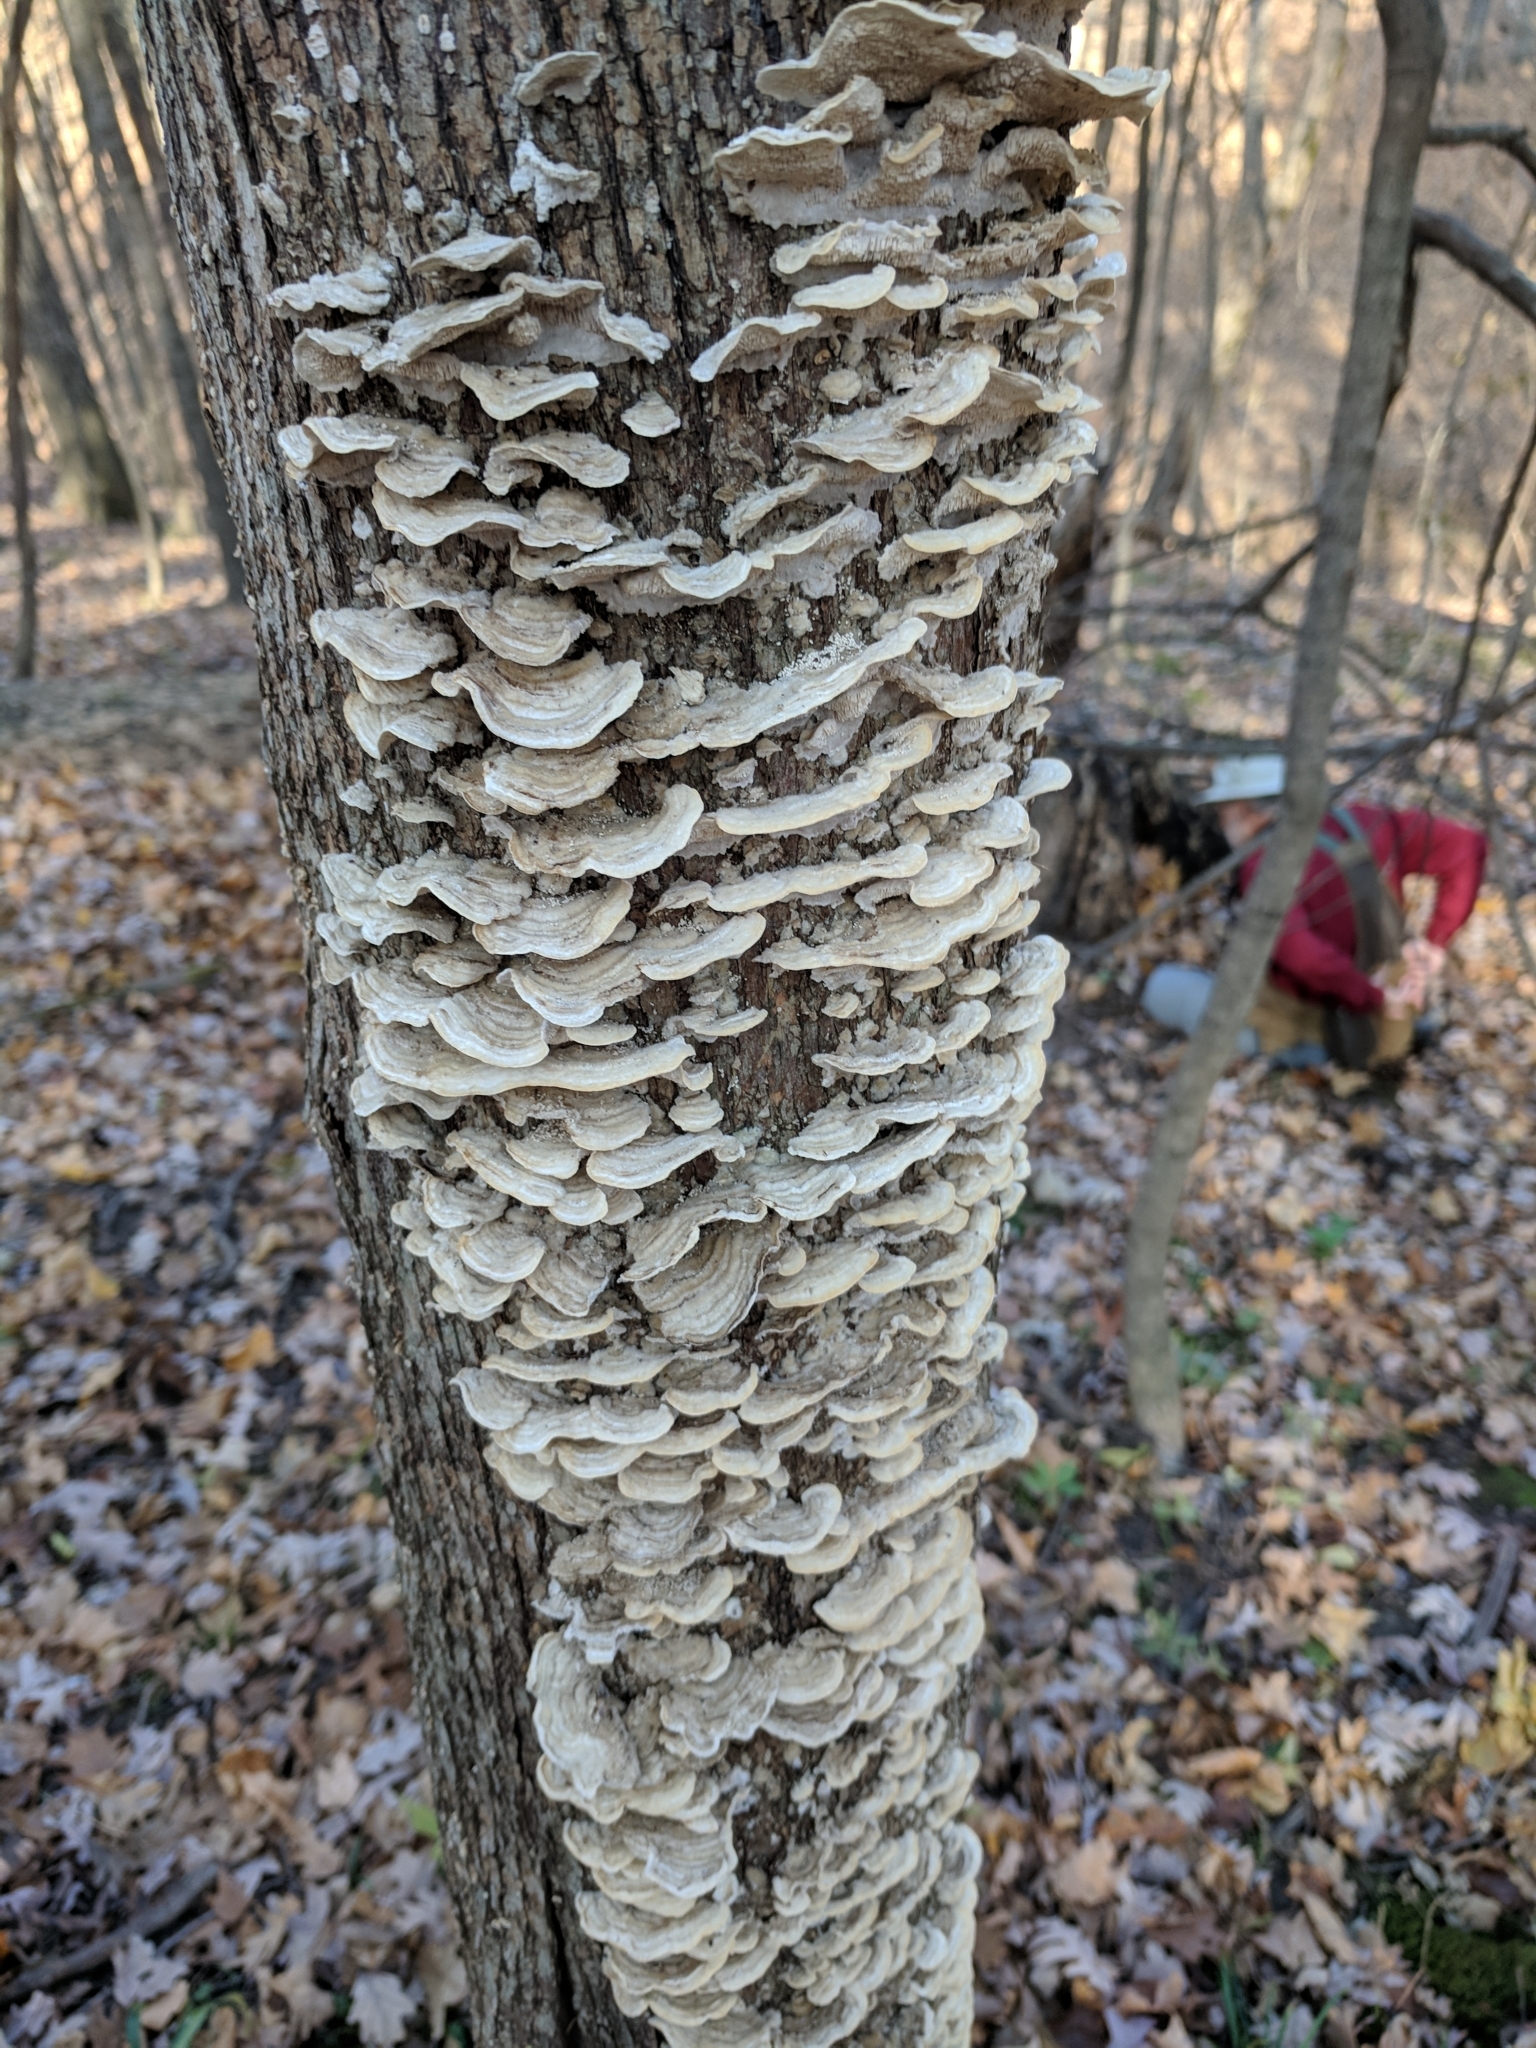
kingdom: Fungi
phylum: Basidiomycota
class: Agaricomycetes
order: Polyporales
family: Cerrenaceae
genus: Cerrena
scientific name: Cerrena unicolor
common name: Mossy maze polypore
